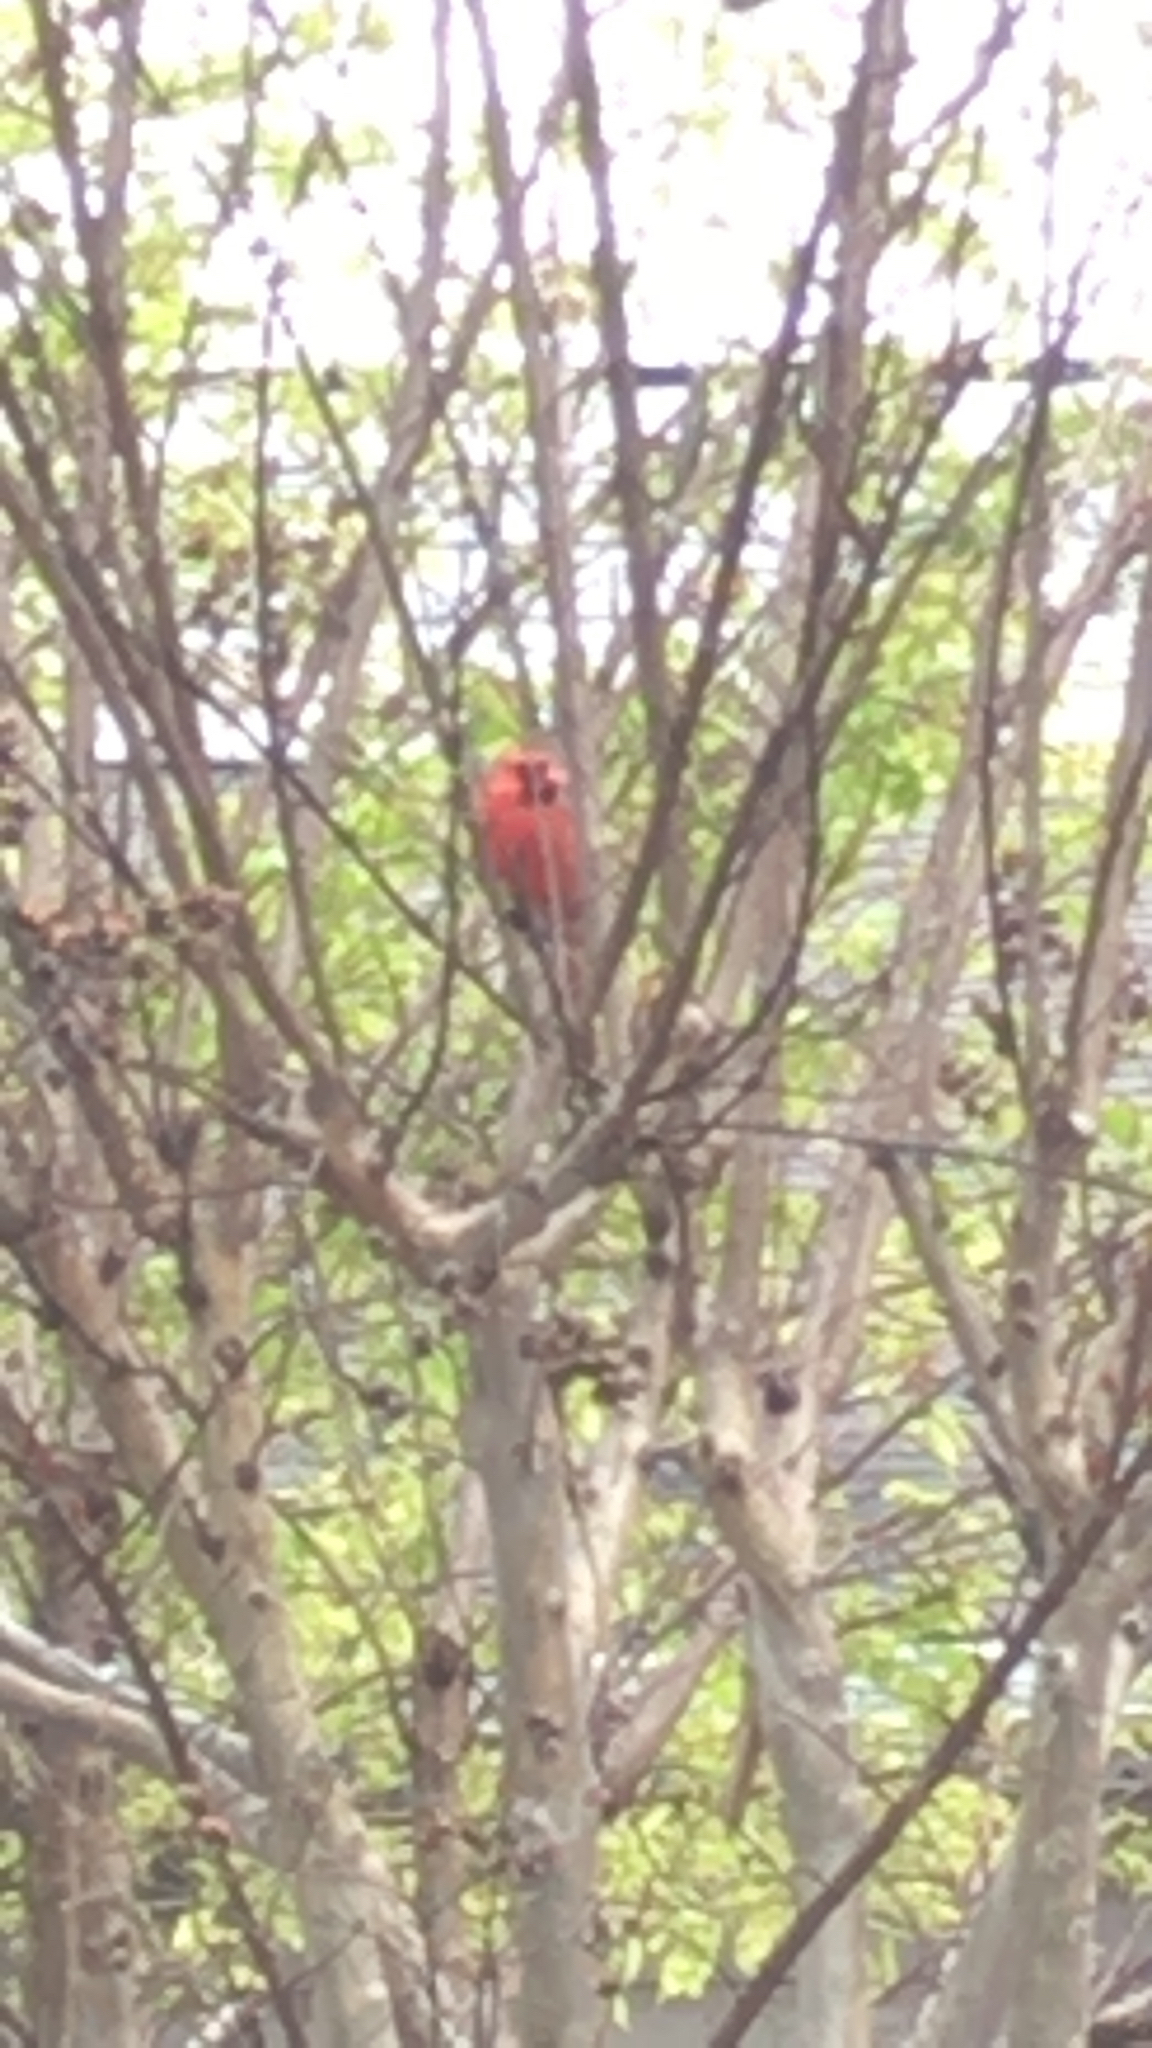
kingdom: Animalia
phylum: Chordata
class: Aves
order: Passeriformes
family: Cardinalidae
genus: Cardinalis
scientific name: Cardinalis cardinalis
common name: Northern cardinal
